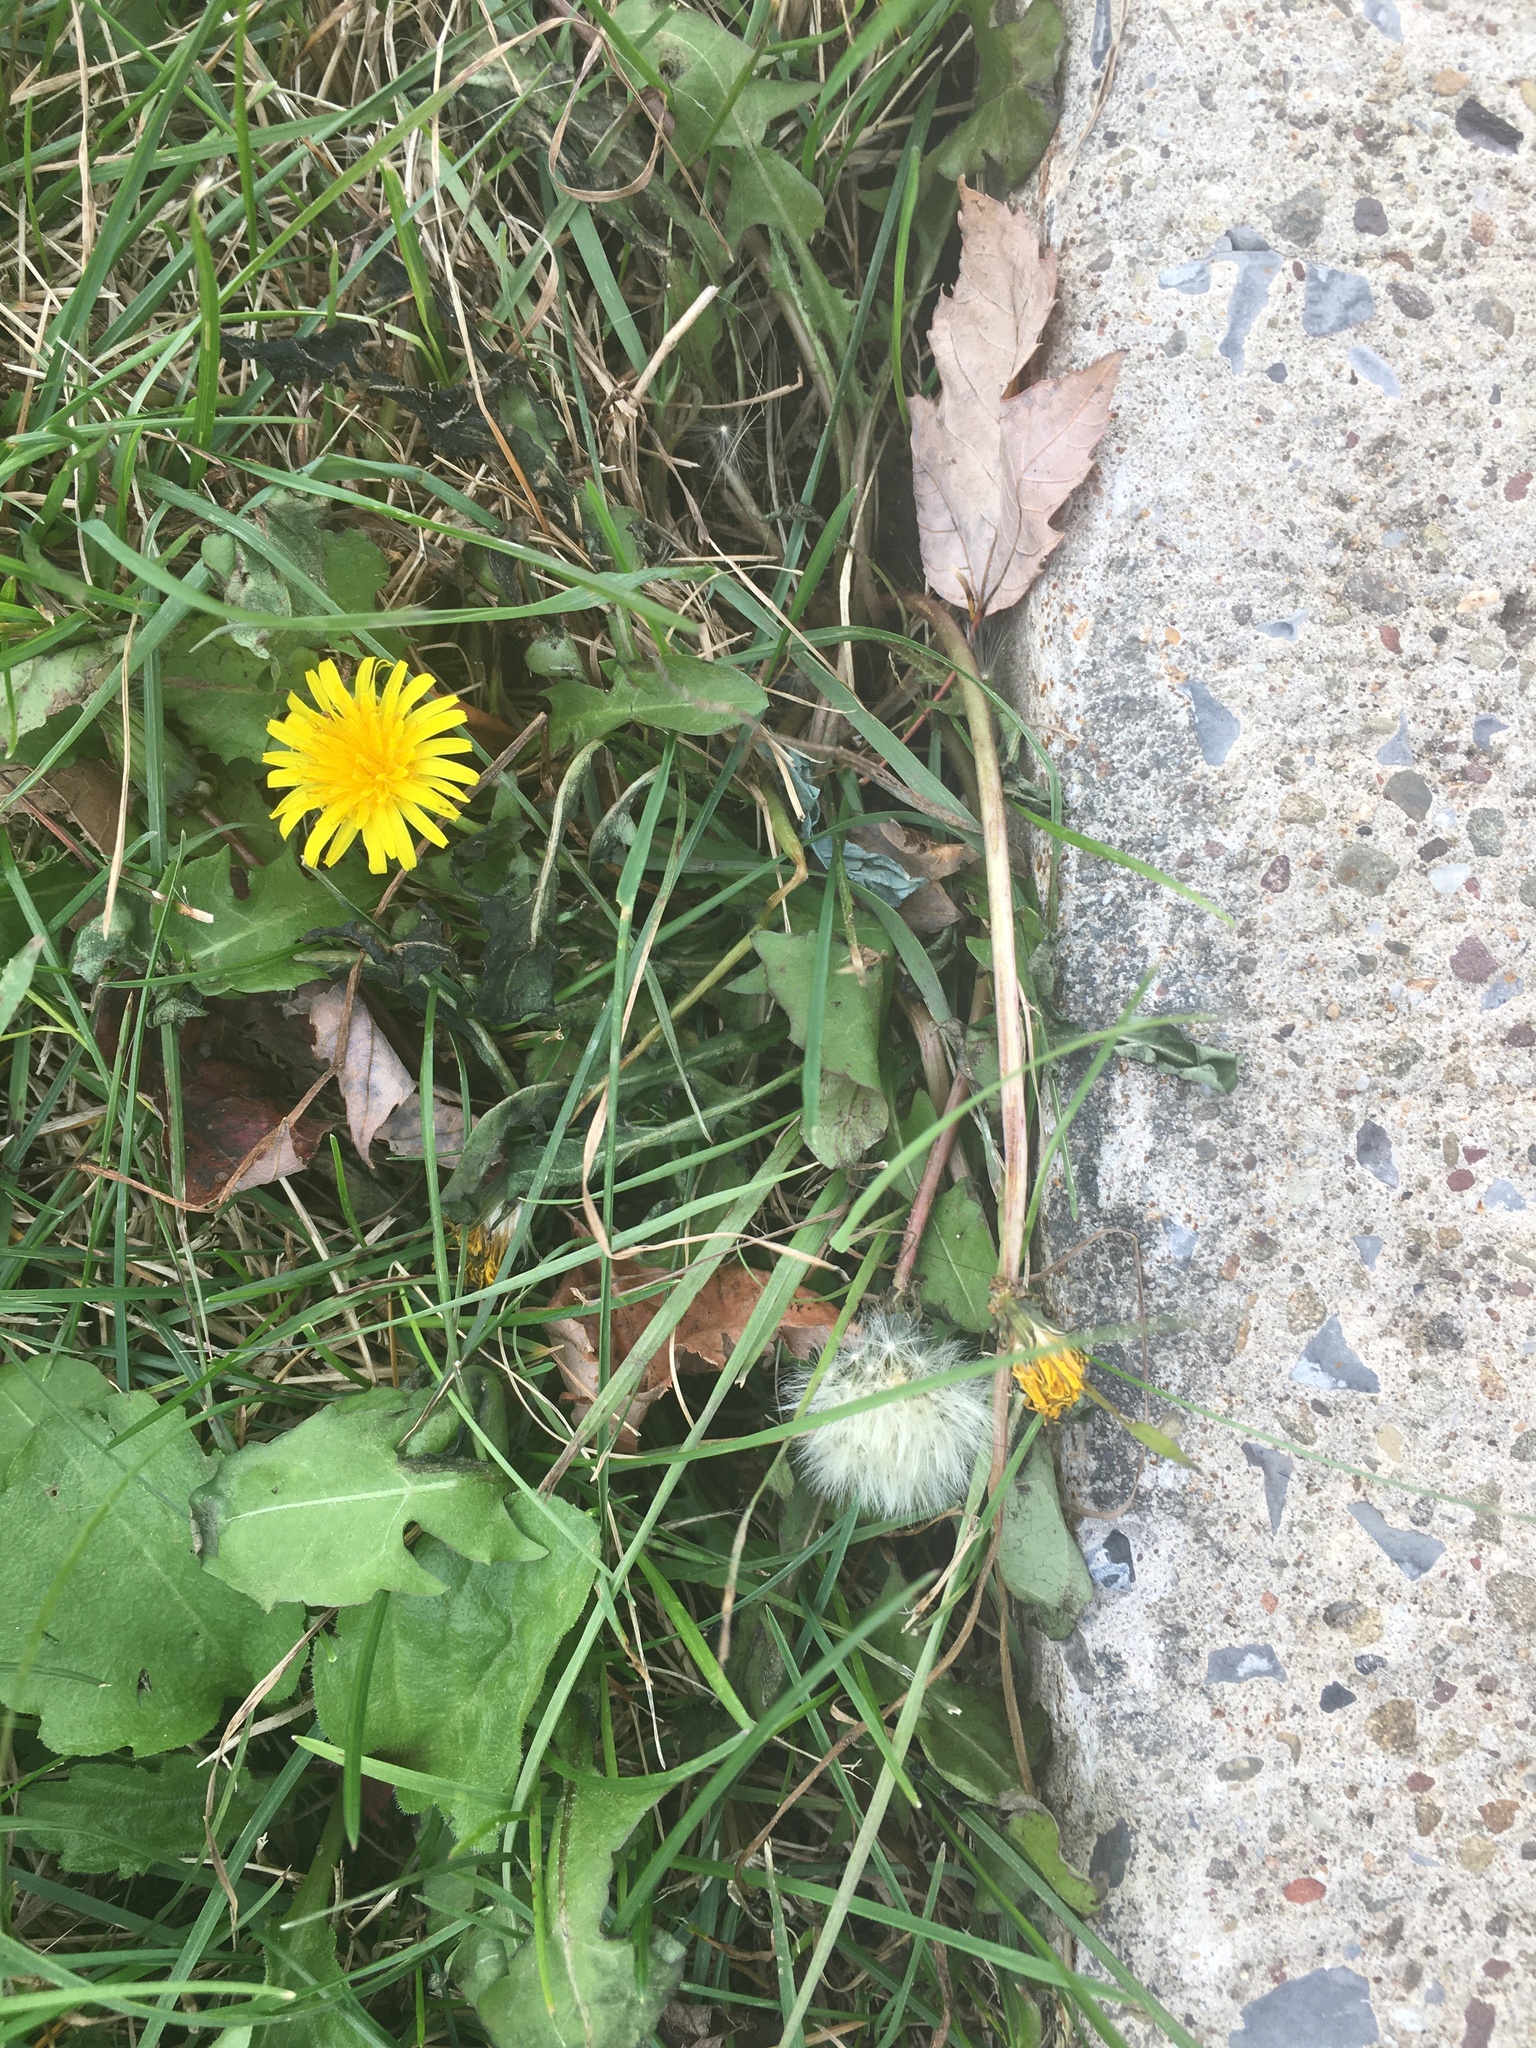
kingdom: Plantae
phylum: Tracheophyta
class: Magnoliopsida
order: Asterales
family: Asteraceae
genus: Taraxacum
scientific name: Taraxacum officinale
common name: Common dandelion
